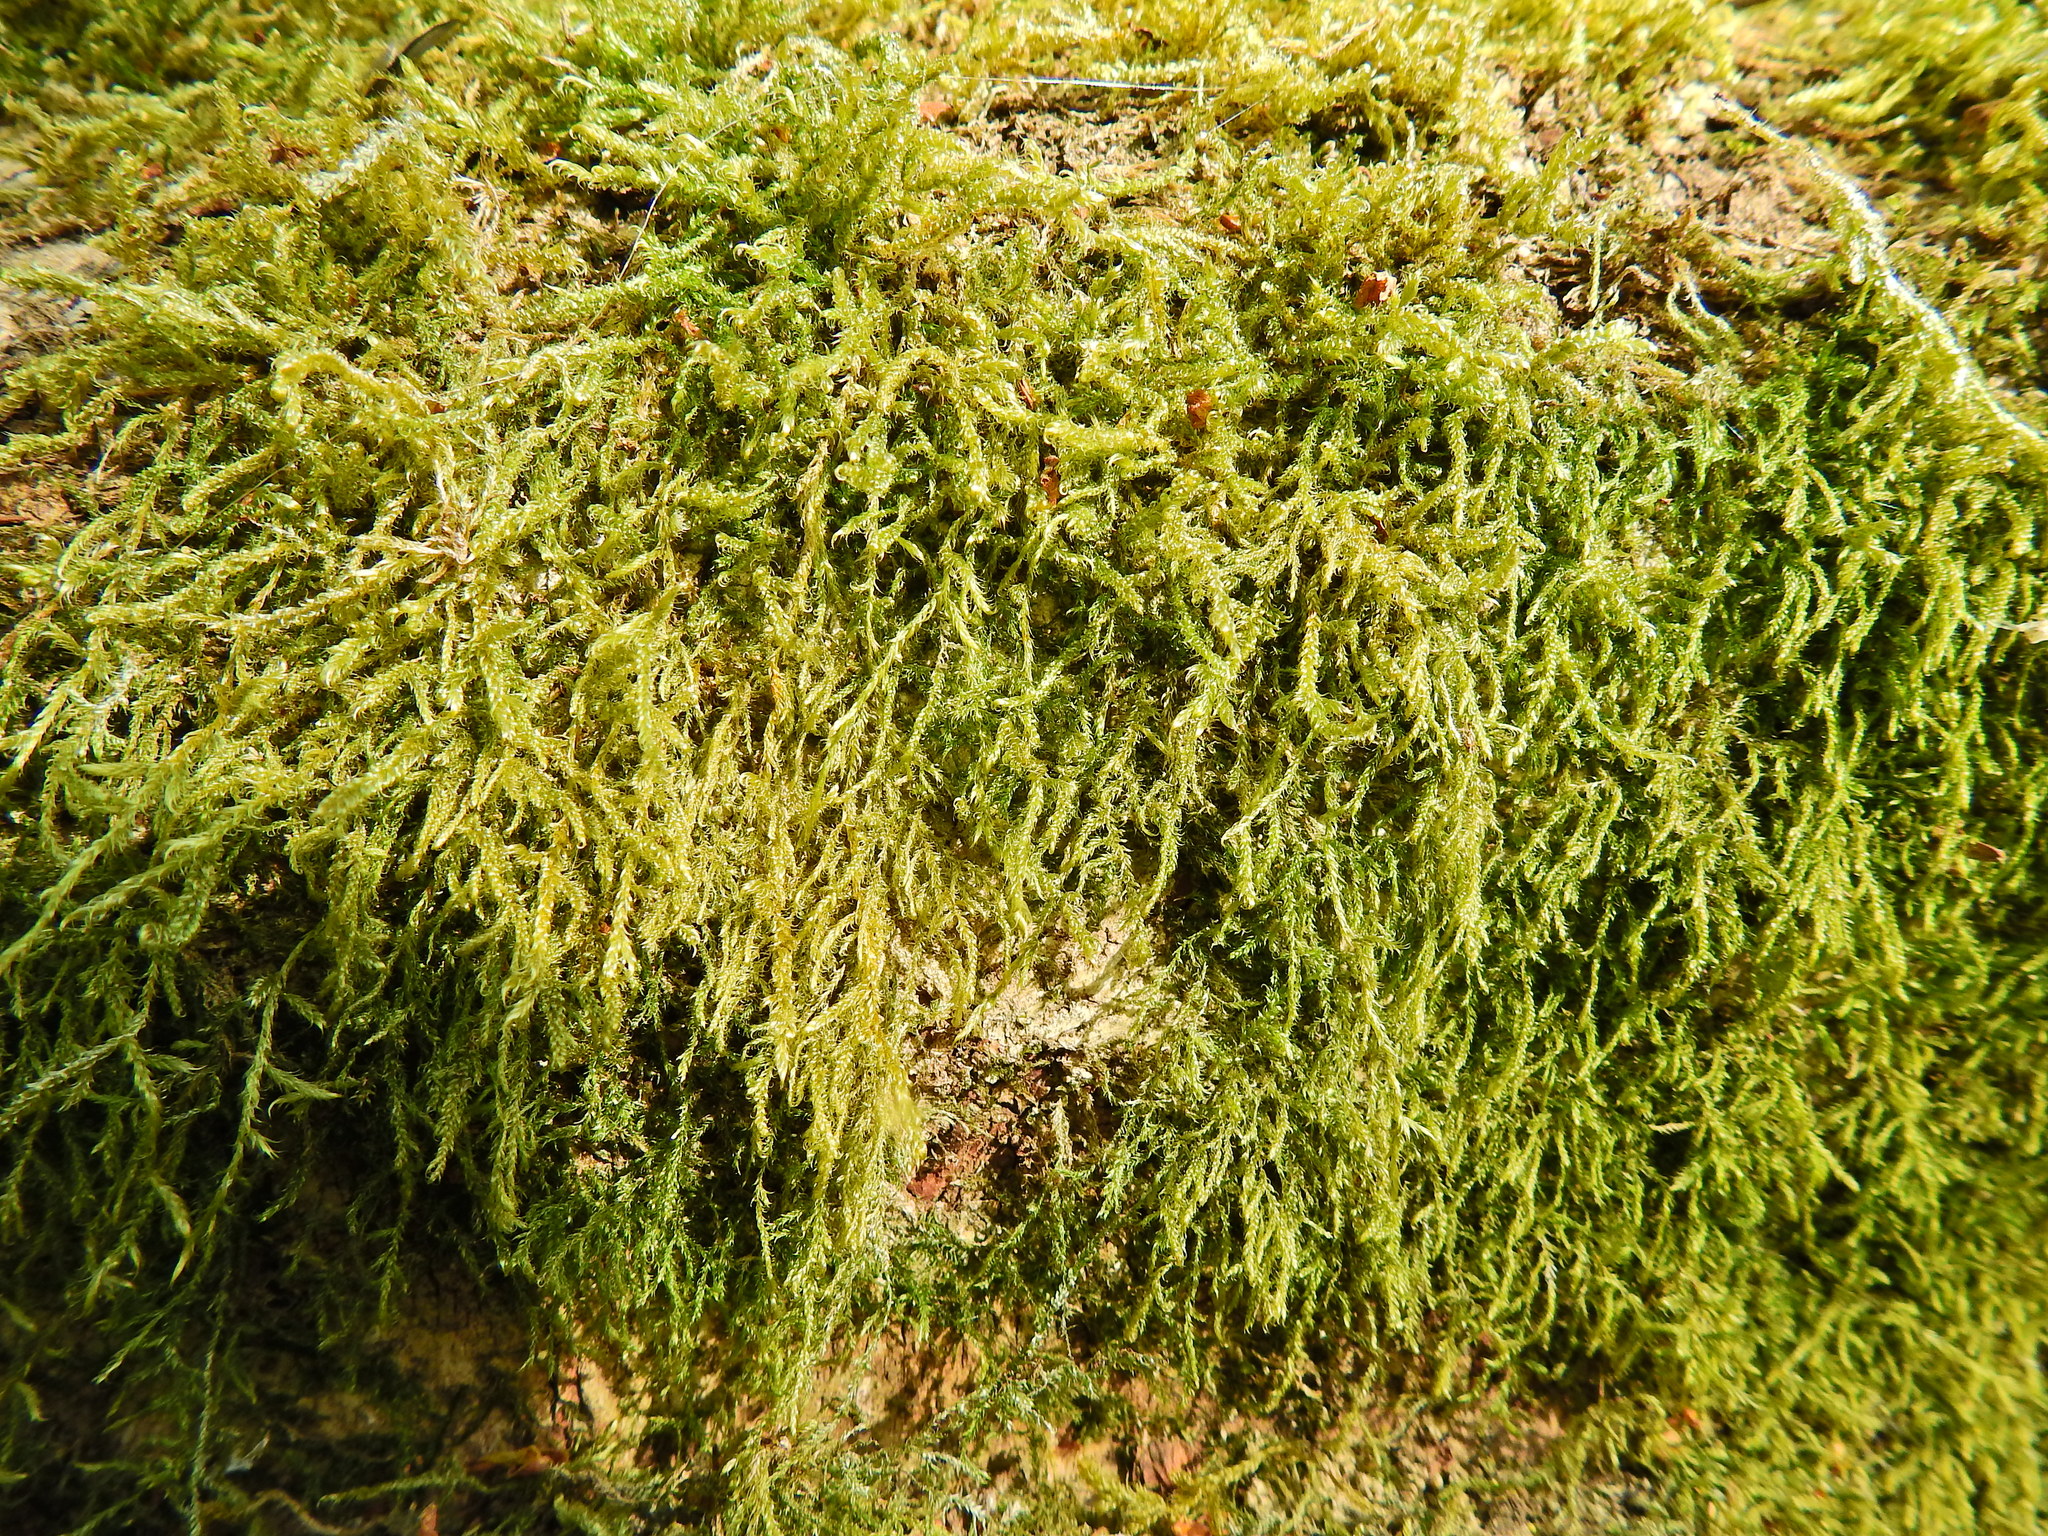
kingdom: Plantae
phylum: Bryophyta
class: Bryopsida
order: Hypnales
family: Hypnaceae
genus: Hypnum
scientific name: Hypnum cupressiforme
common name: Cypress-leaved plait-moss
